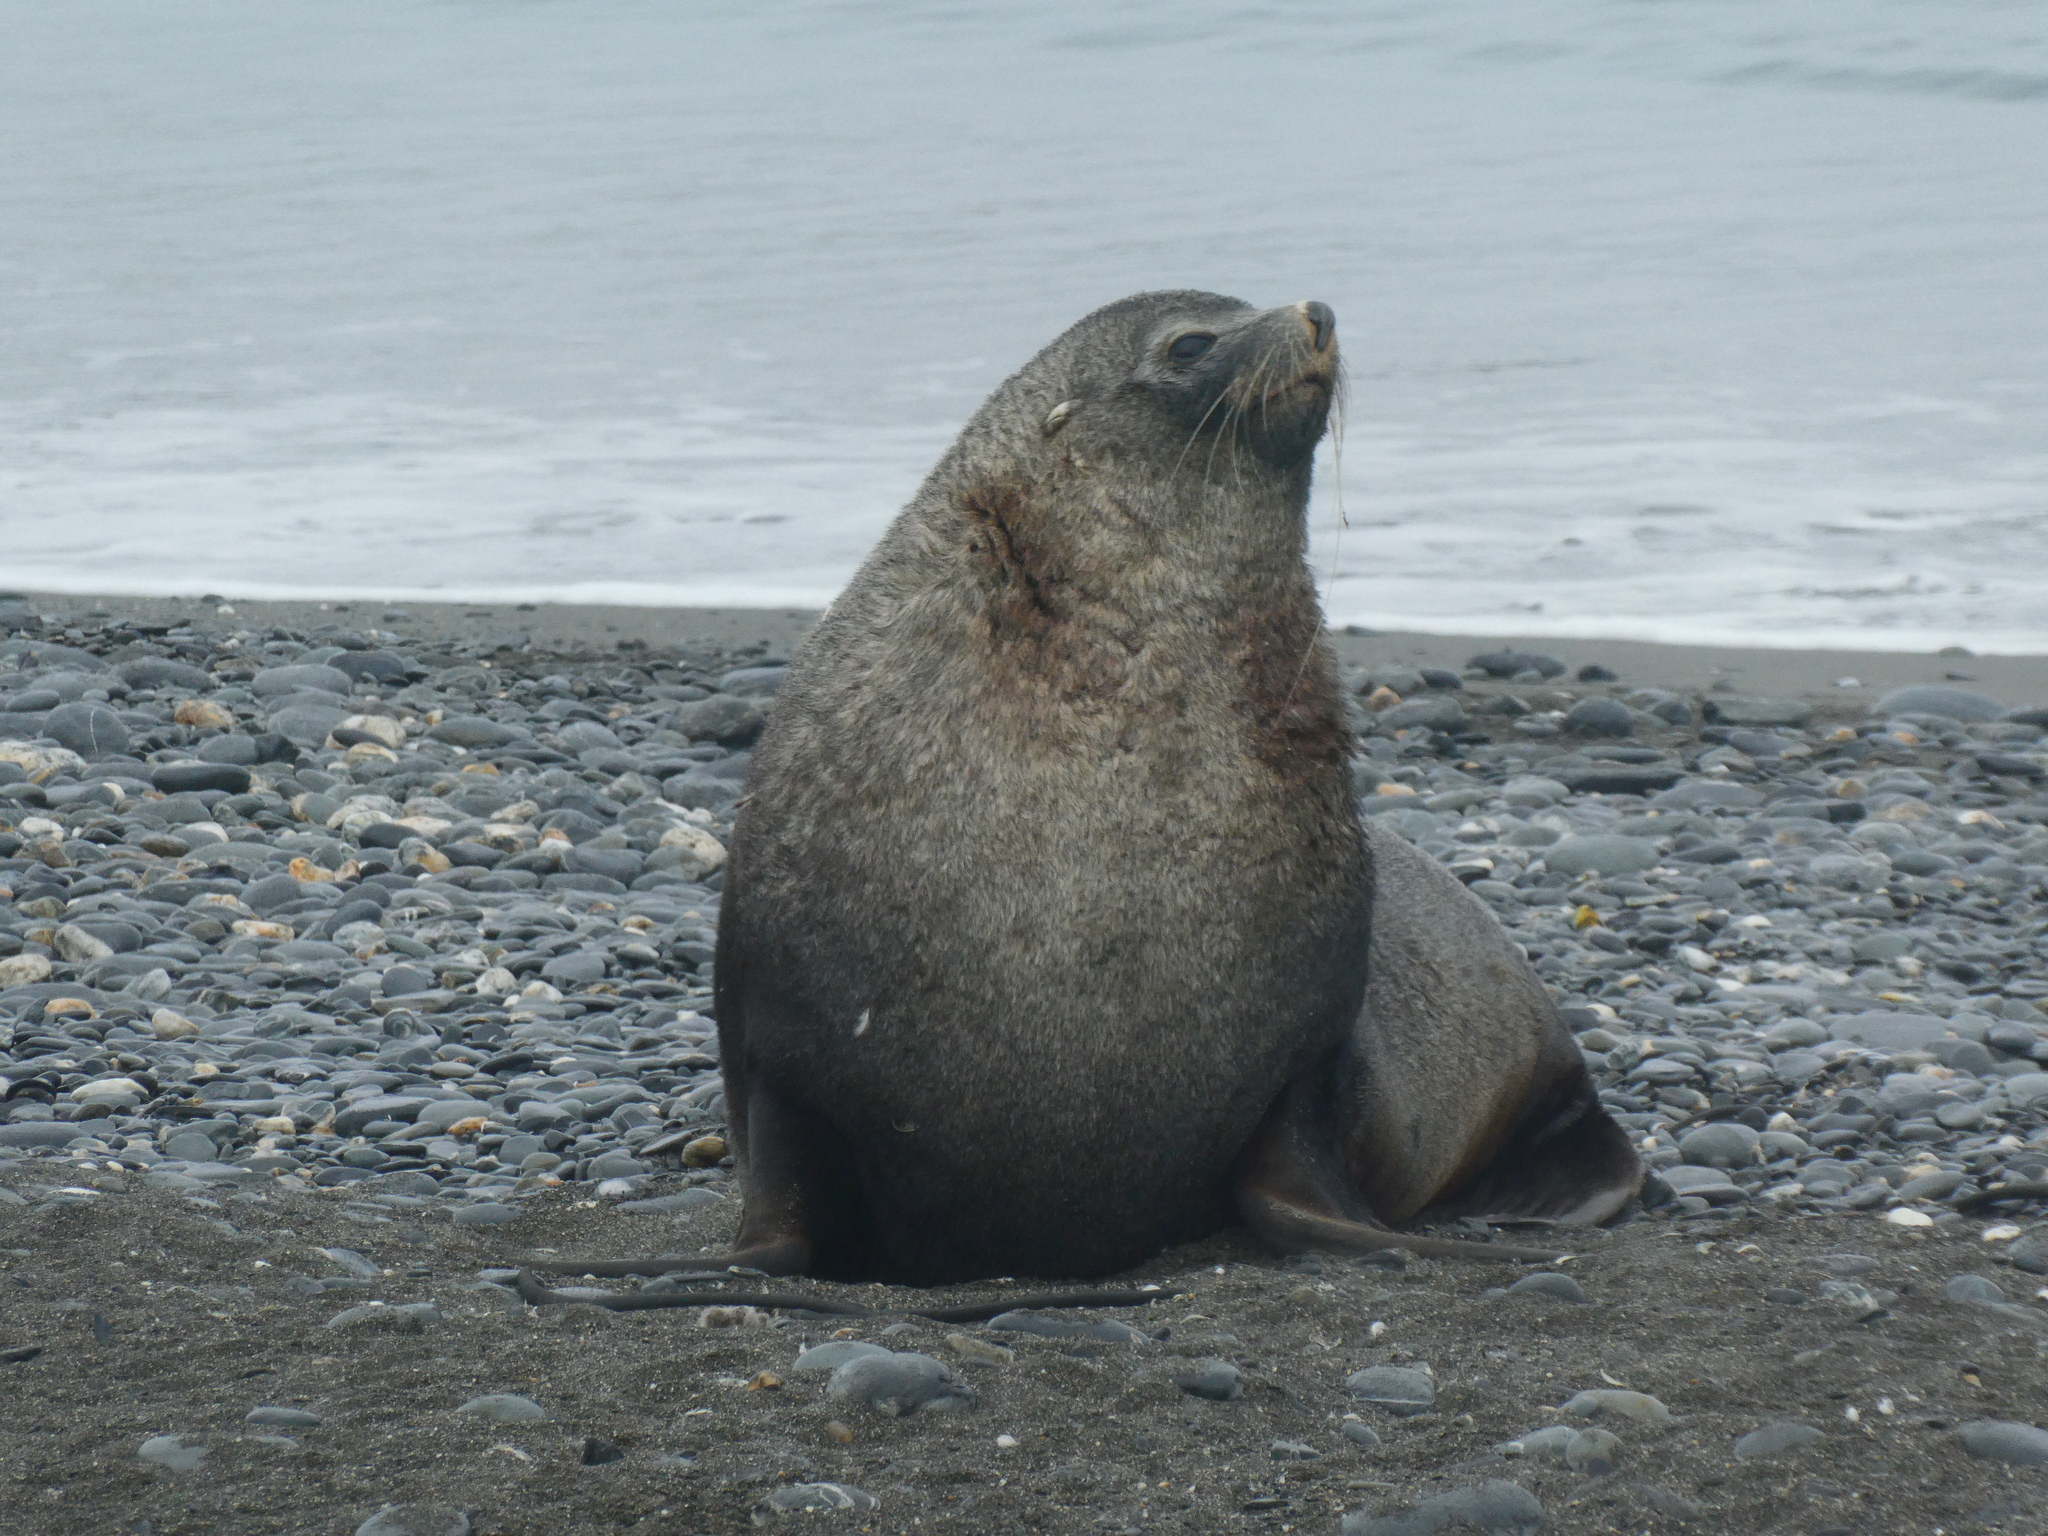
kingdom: Animalia
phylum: Chordata
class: Mammalia
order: Carnivora
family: Otariidae
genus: Arctocephalus
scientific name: Arctocephalus gazella
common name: Antarctic fur seal
